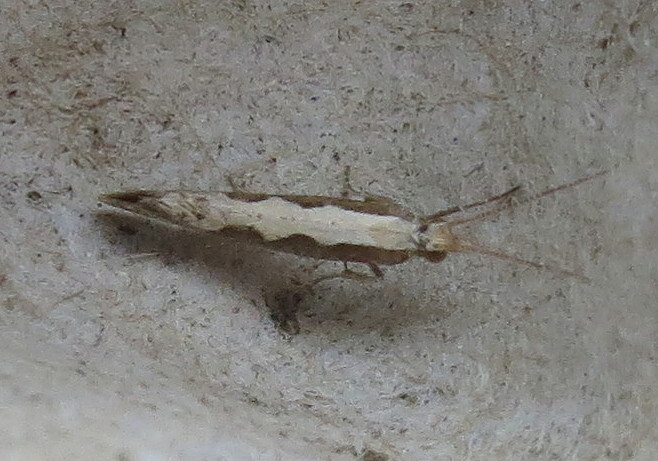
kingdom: Animalia
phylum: Arthropoda
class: Insecta
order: Lepidoptera
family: Plutellidae
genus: Plutella
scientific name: Plutella xylostella
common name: Diamond-back moth
